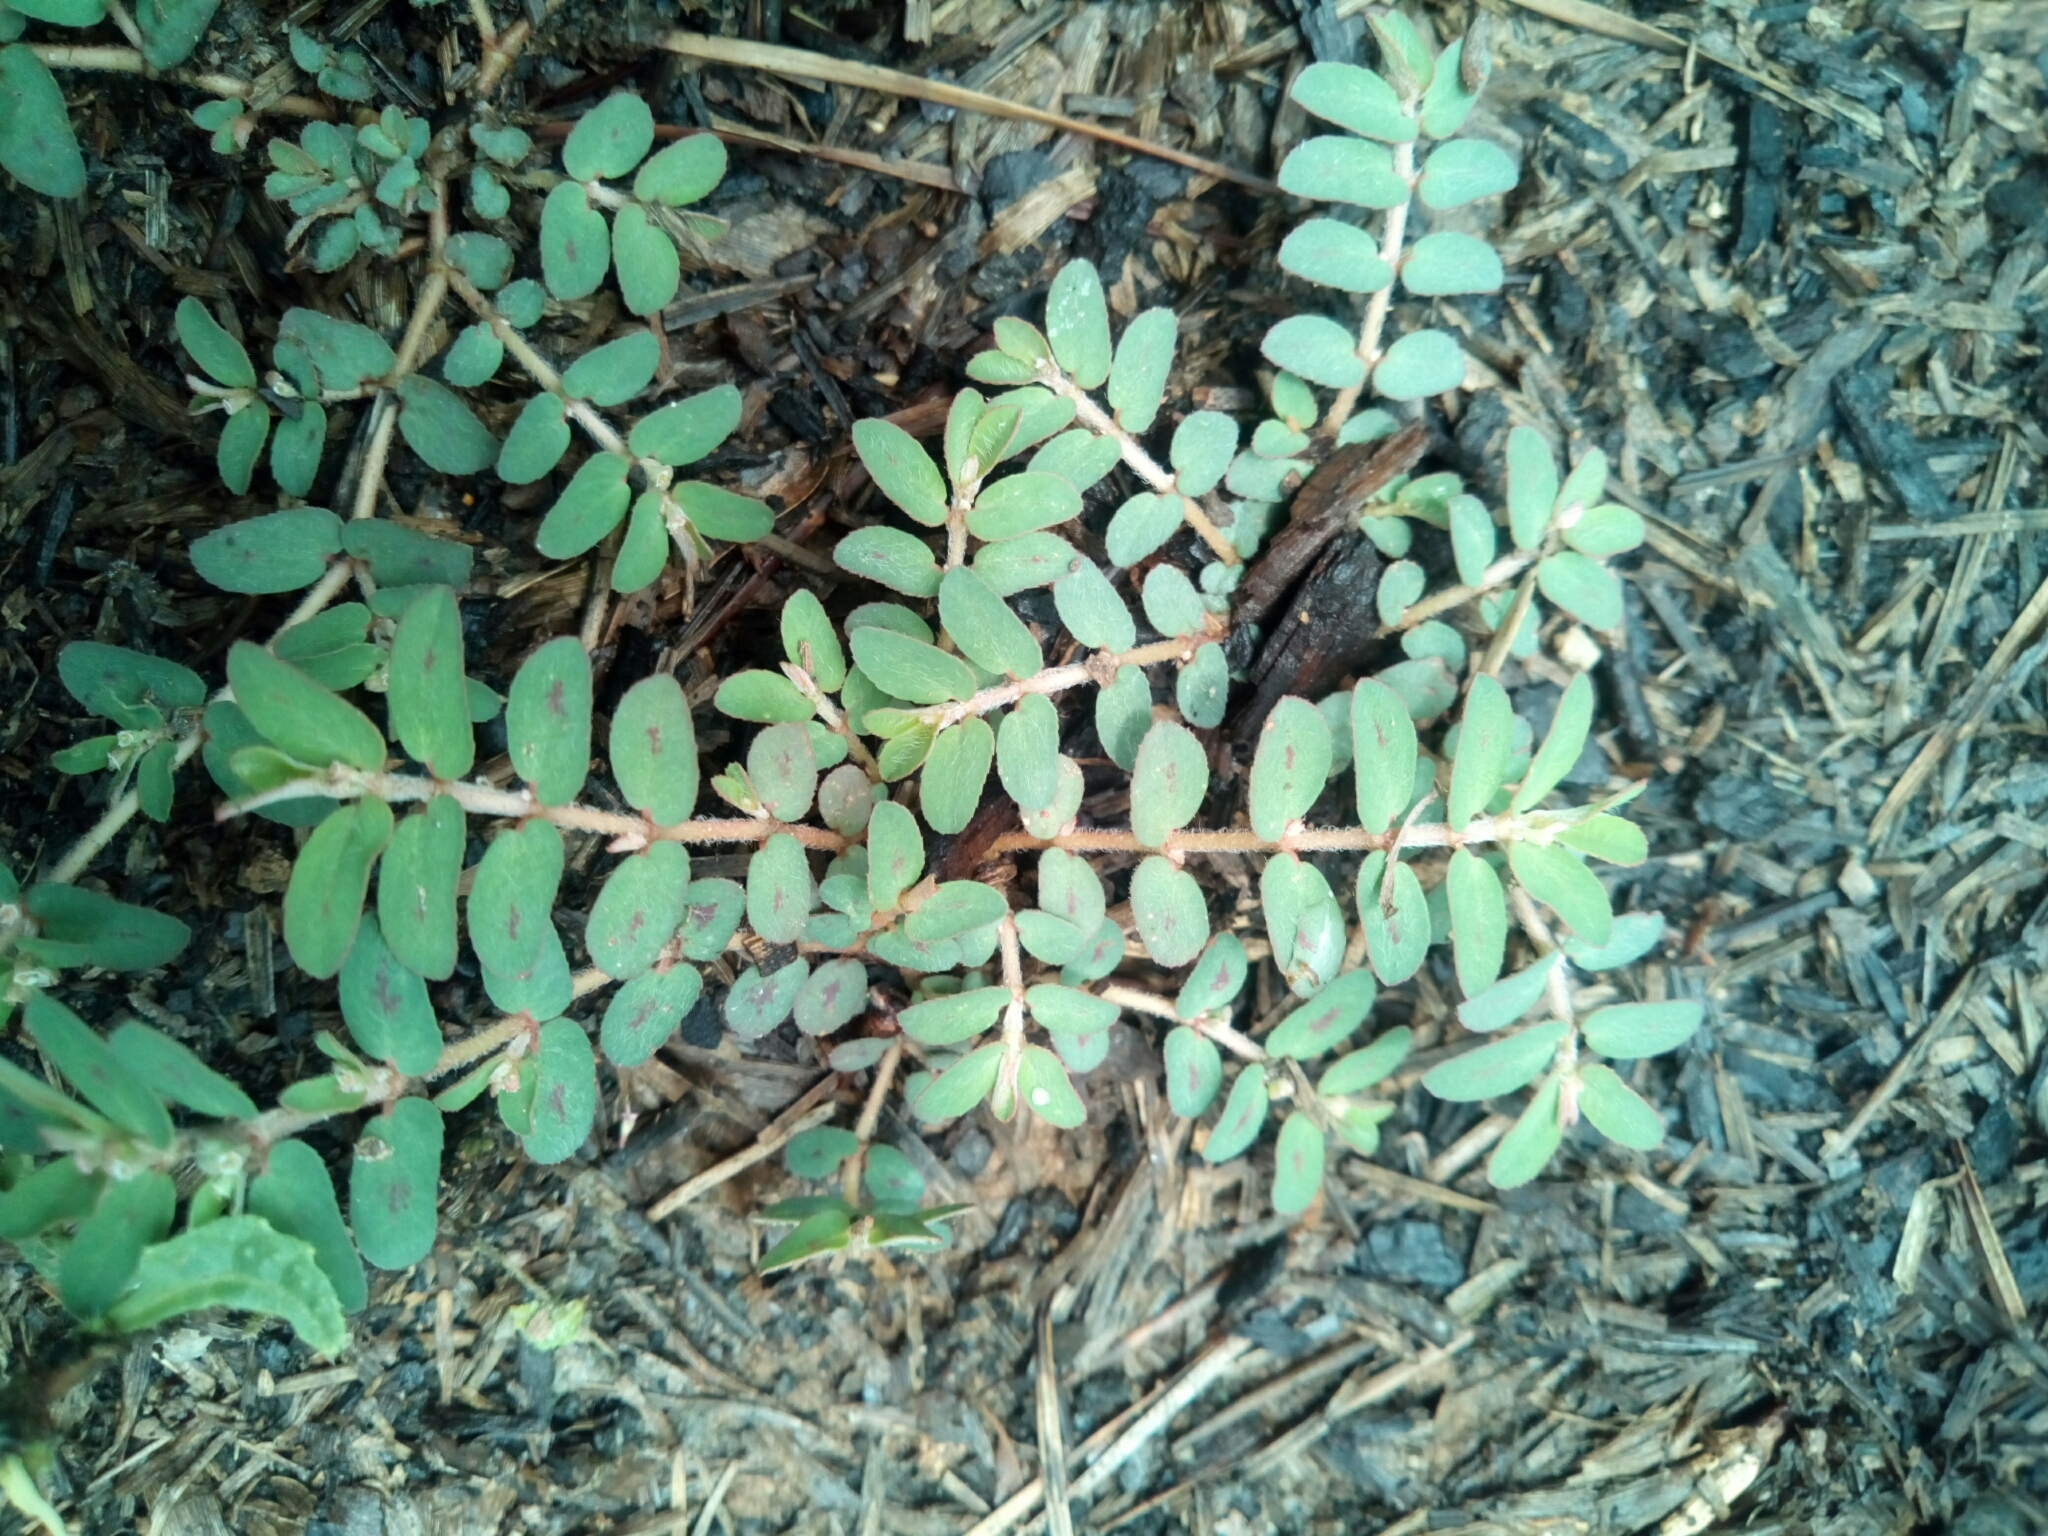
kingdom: Plantae
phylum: Tracheophyta
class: Magnoliopsida
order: Malpighiales
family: Euphorbiaceae
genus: Euphorbia
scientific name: Euphorbia maculata
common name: Spotted spurge
